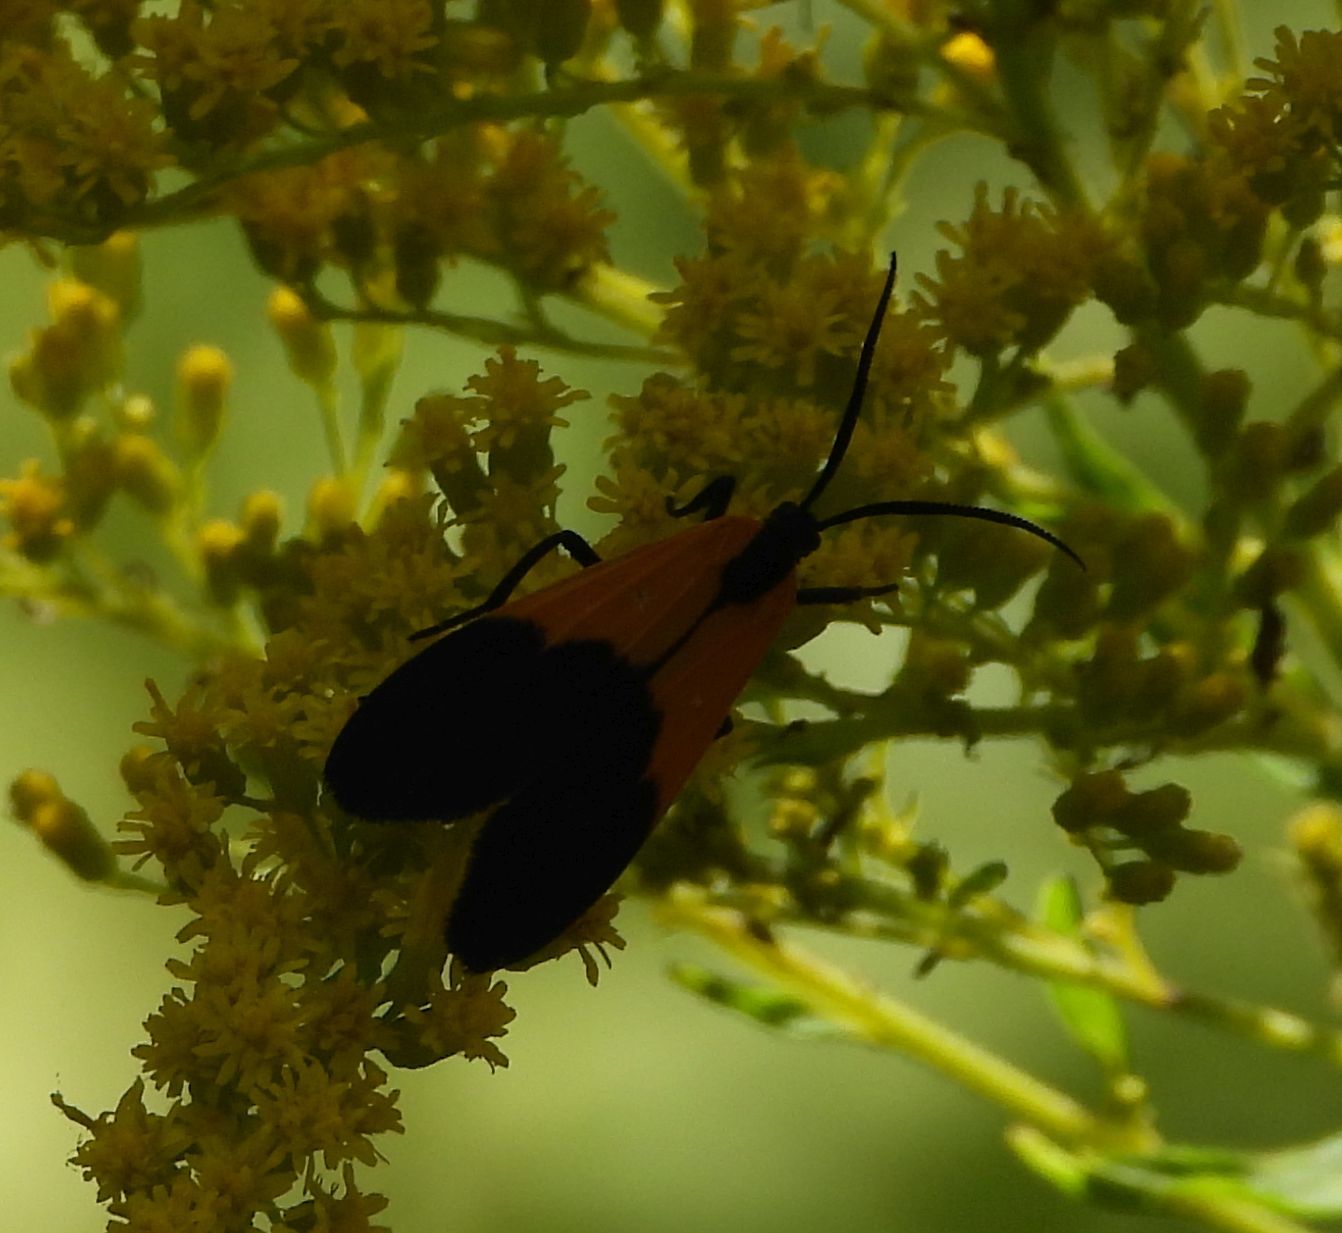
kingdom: Animalia
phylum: Arthropoda
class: Insecta
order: Lepidoptera
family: Erebidae
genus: Lycomorpha
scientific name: Lycomorpha pholus
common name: Black-and-yellow lichen moth
